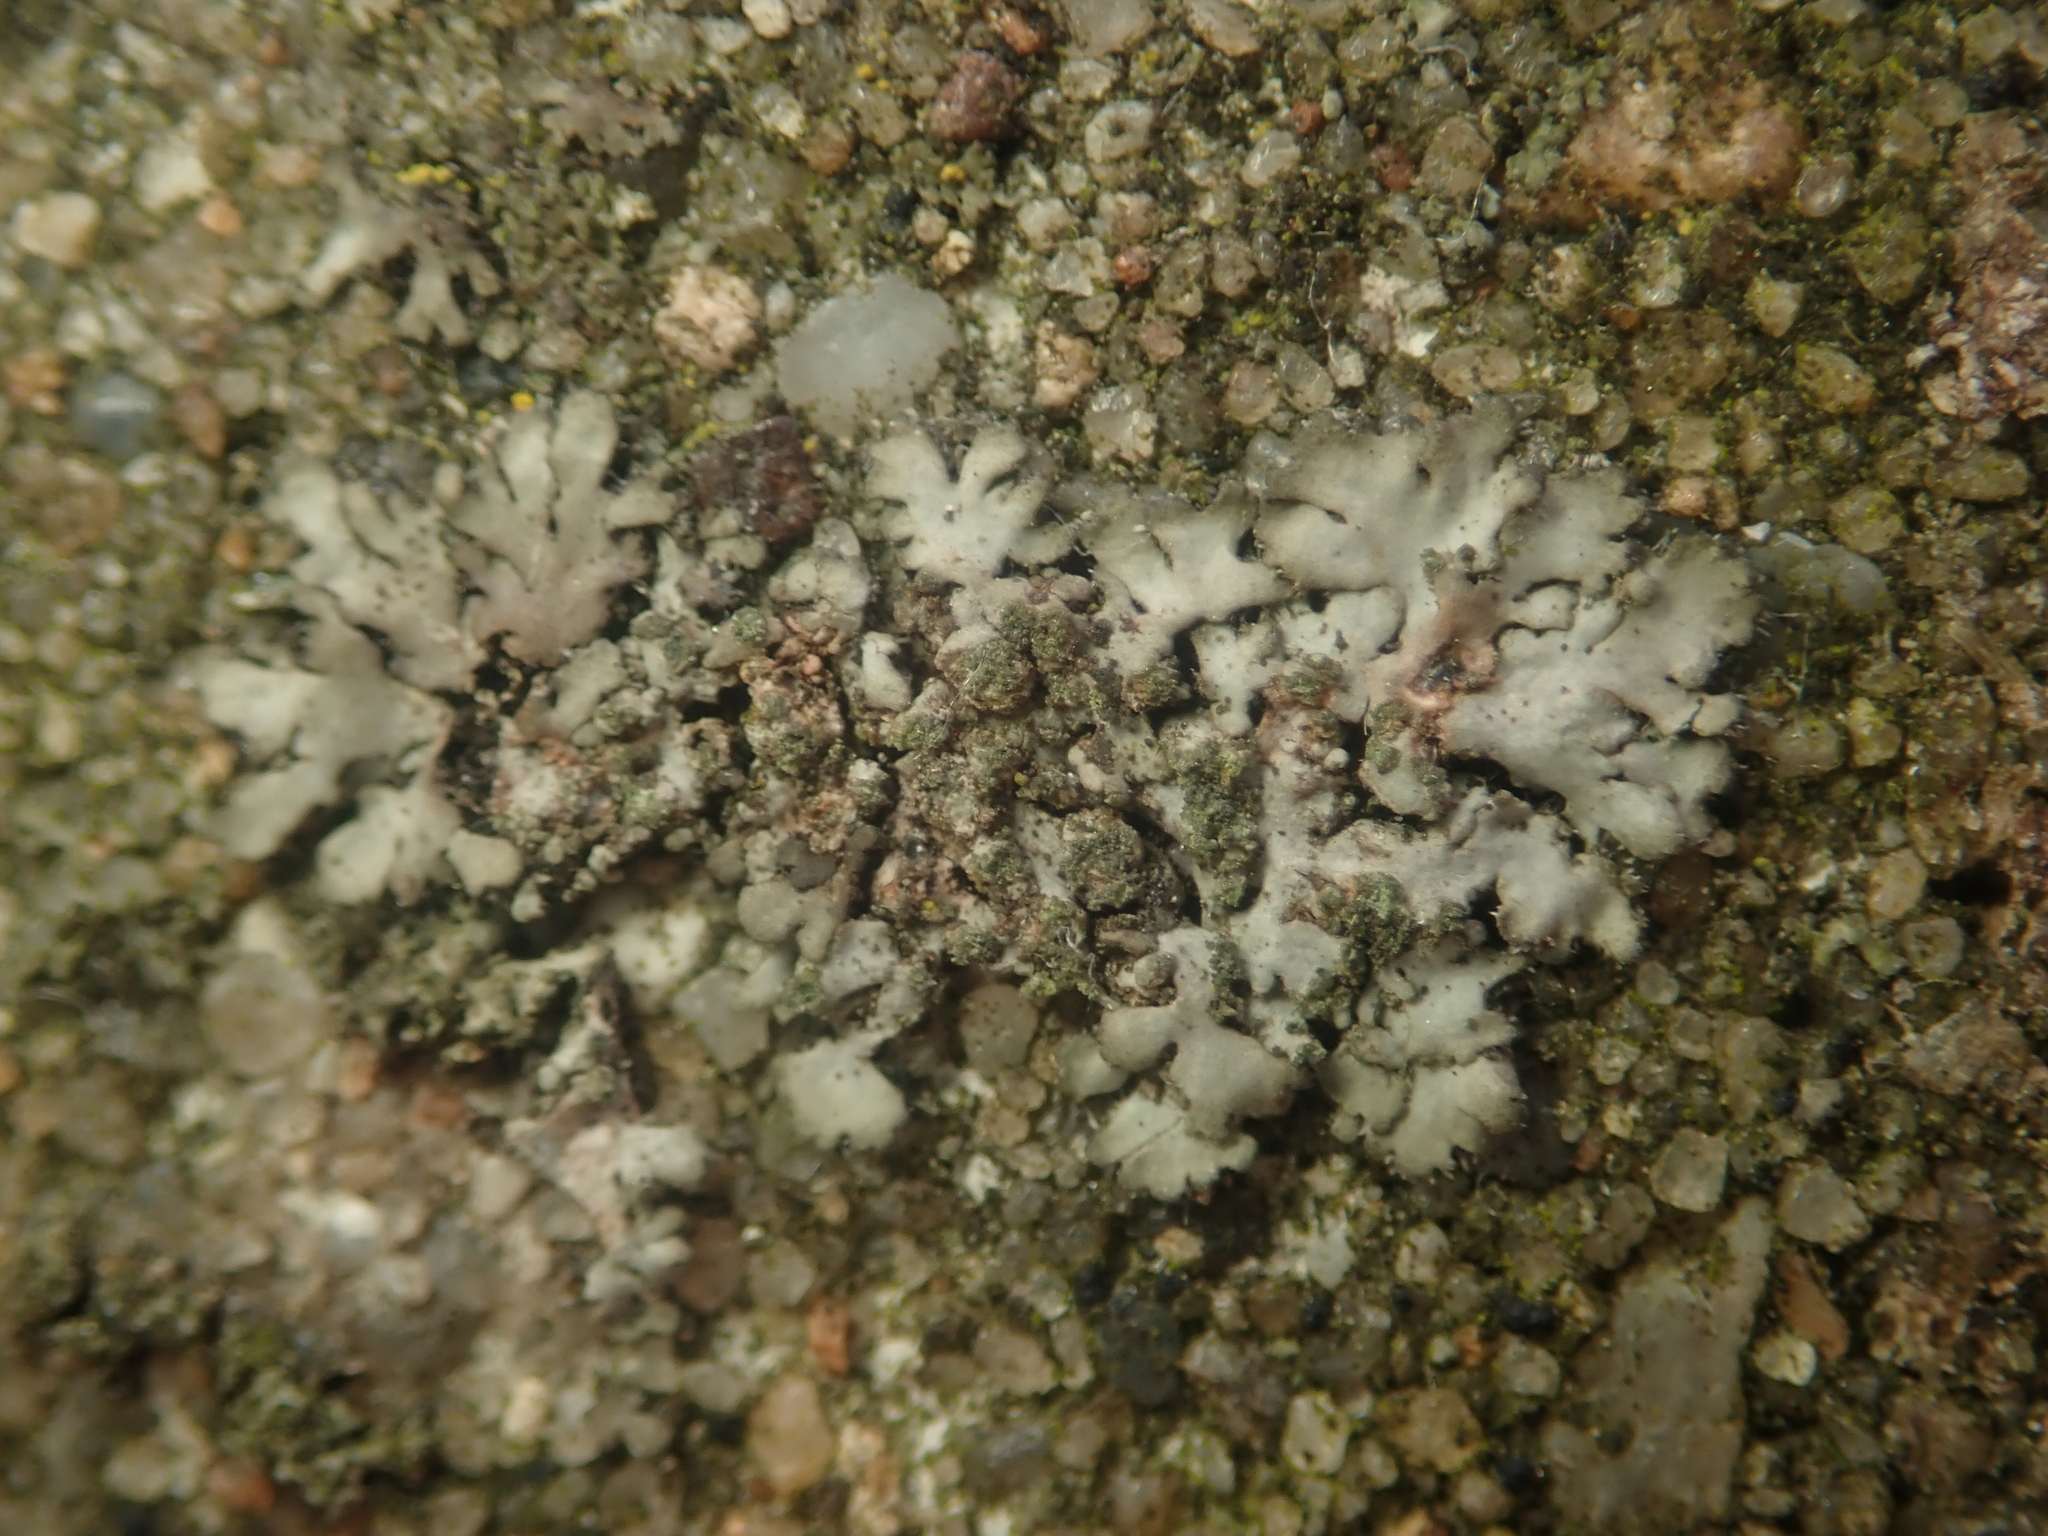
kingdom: Fungi
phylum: Ascomycota
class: Lecanoromycetes
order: Caliciales
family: Physciaceae
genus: Phaeophyscia
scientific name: Phaeophyscia orbicularis
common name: Mealy shadow lichen
